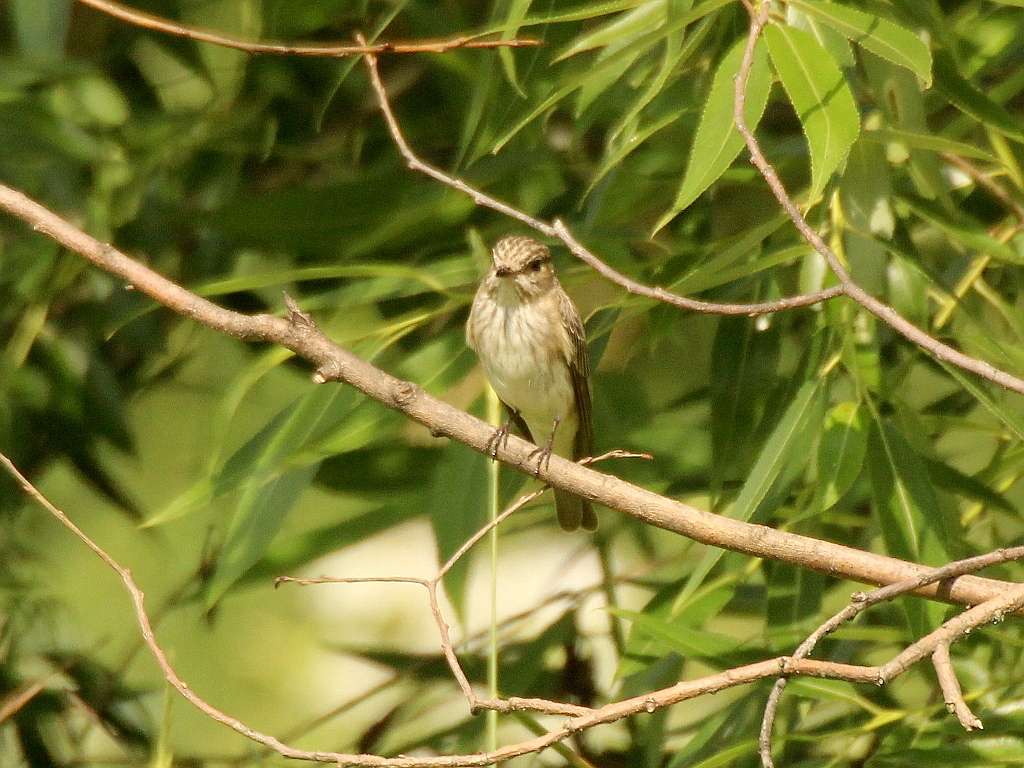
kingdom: Animalia
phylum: Chordata
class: Aves
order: Passeriformes
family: Muscicapidae
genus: Muscicapa
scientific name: Muscicapa striata
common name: Spotted flycatcher
